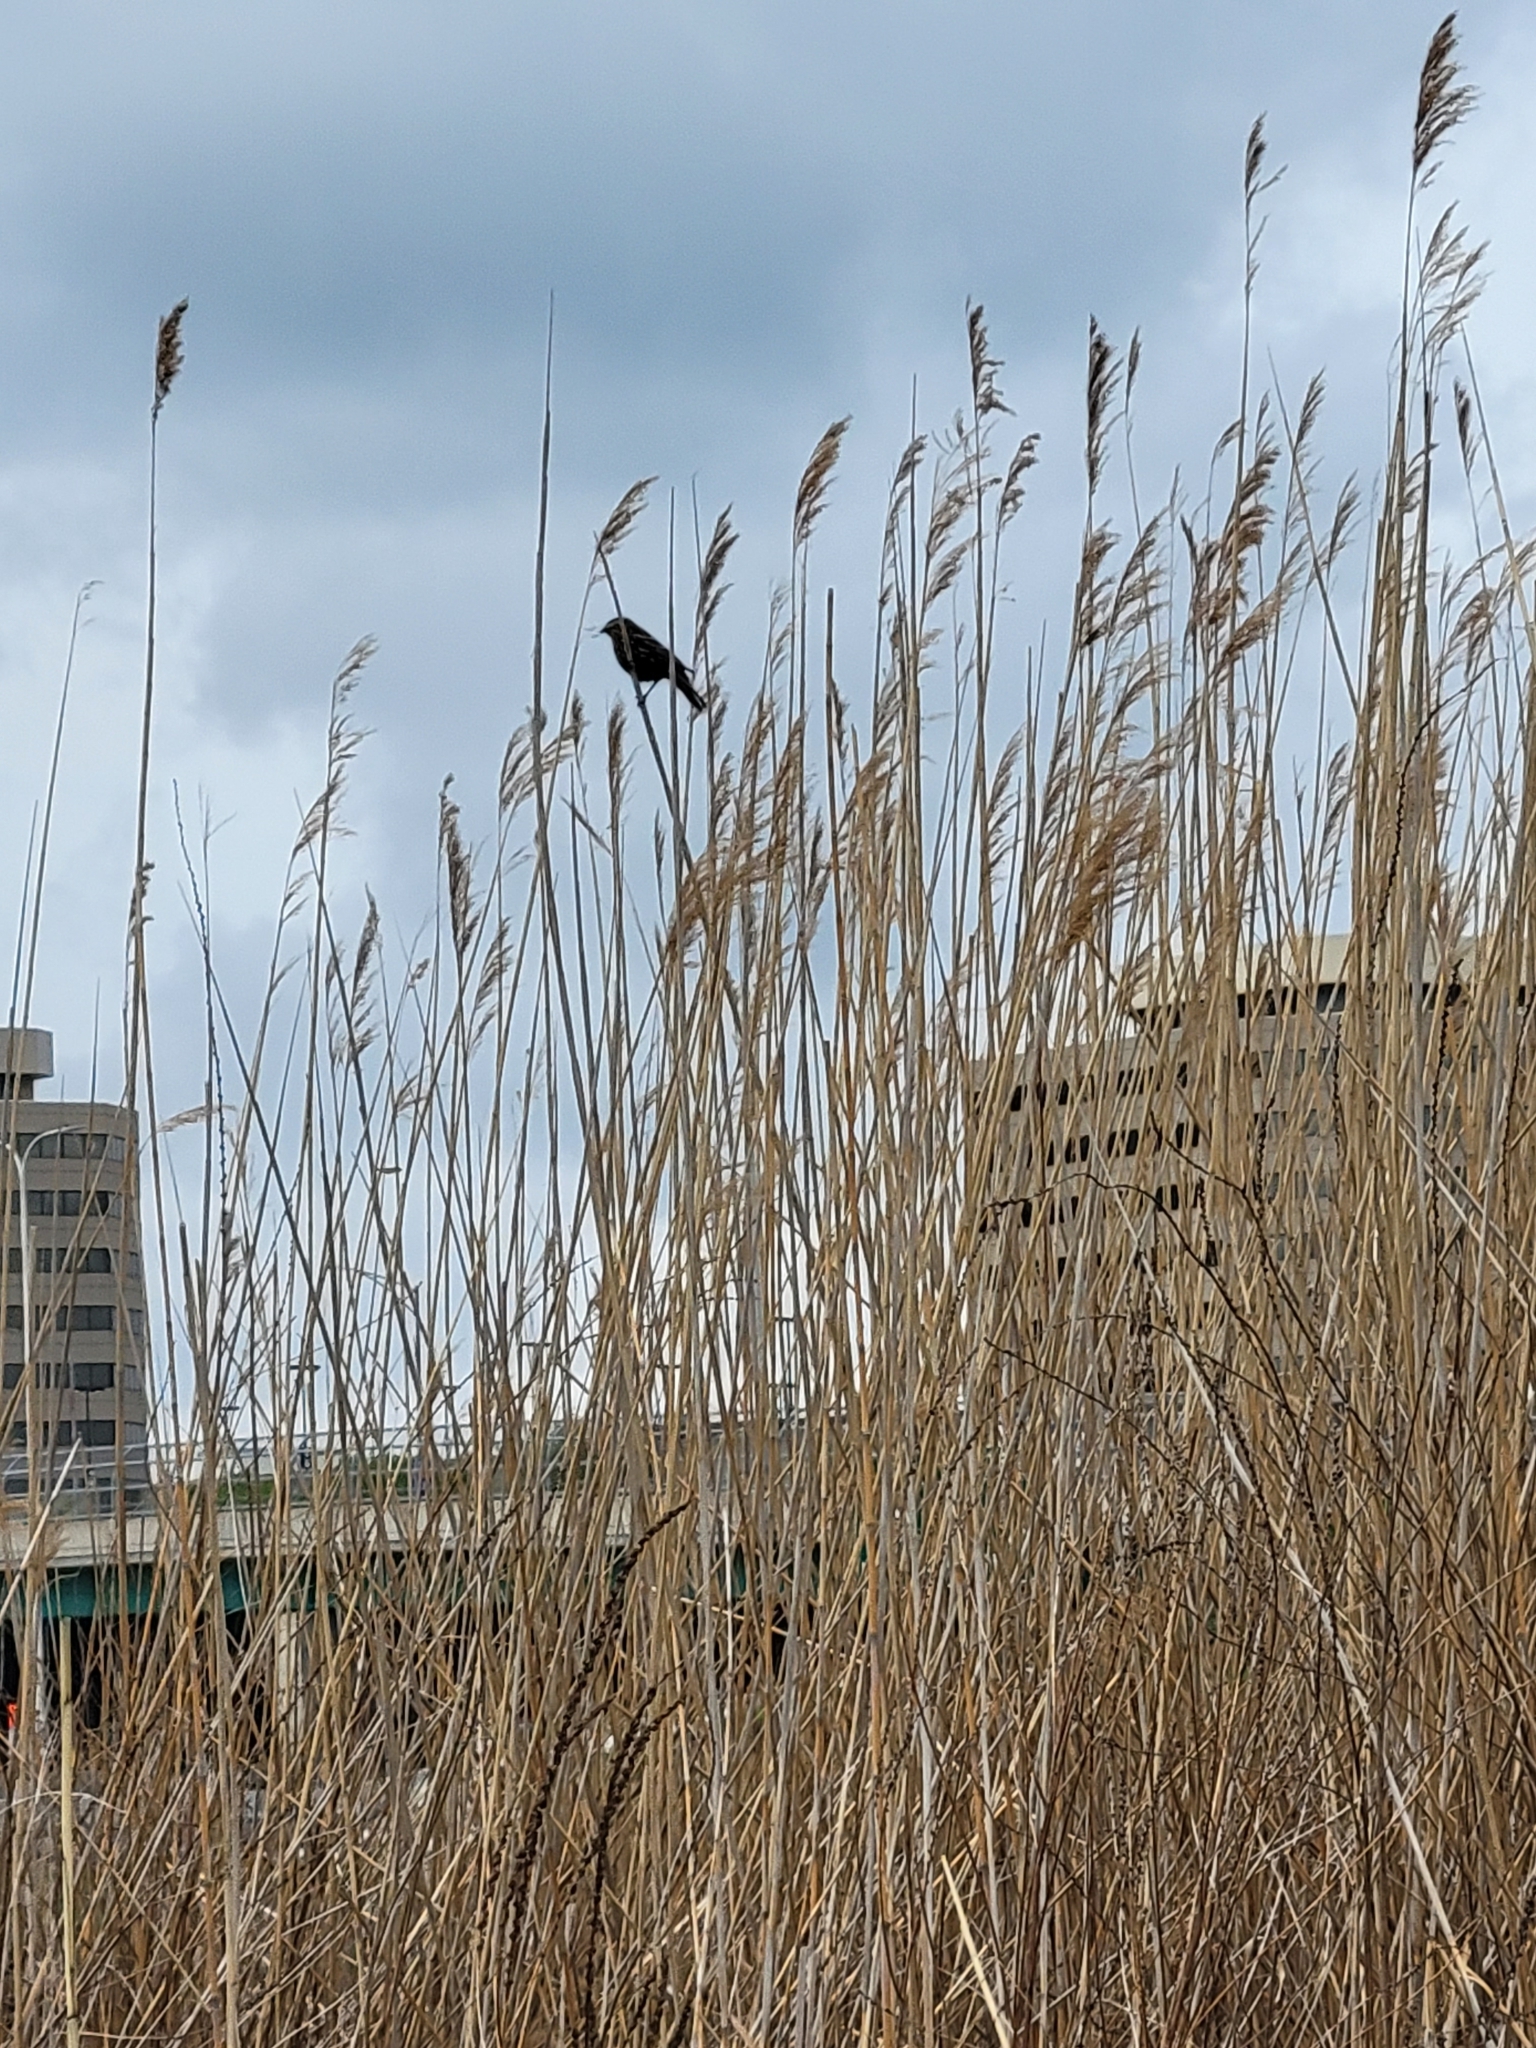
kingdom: Animalia
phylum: Chordata
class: Aves
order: Passeriformes
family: Icteridae
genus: Agelaius
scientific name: Agelaius phoeniceus
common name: Red-winged blackbird
